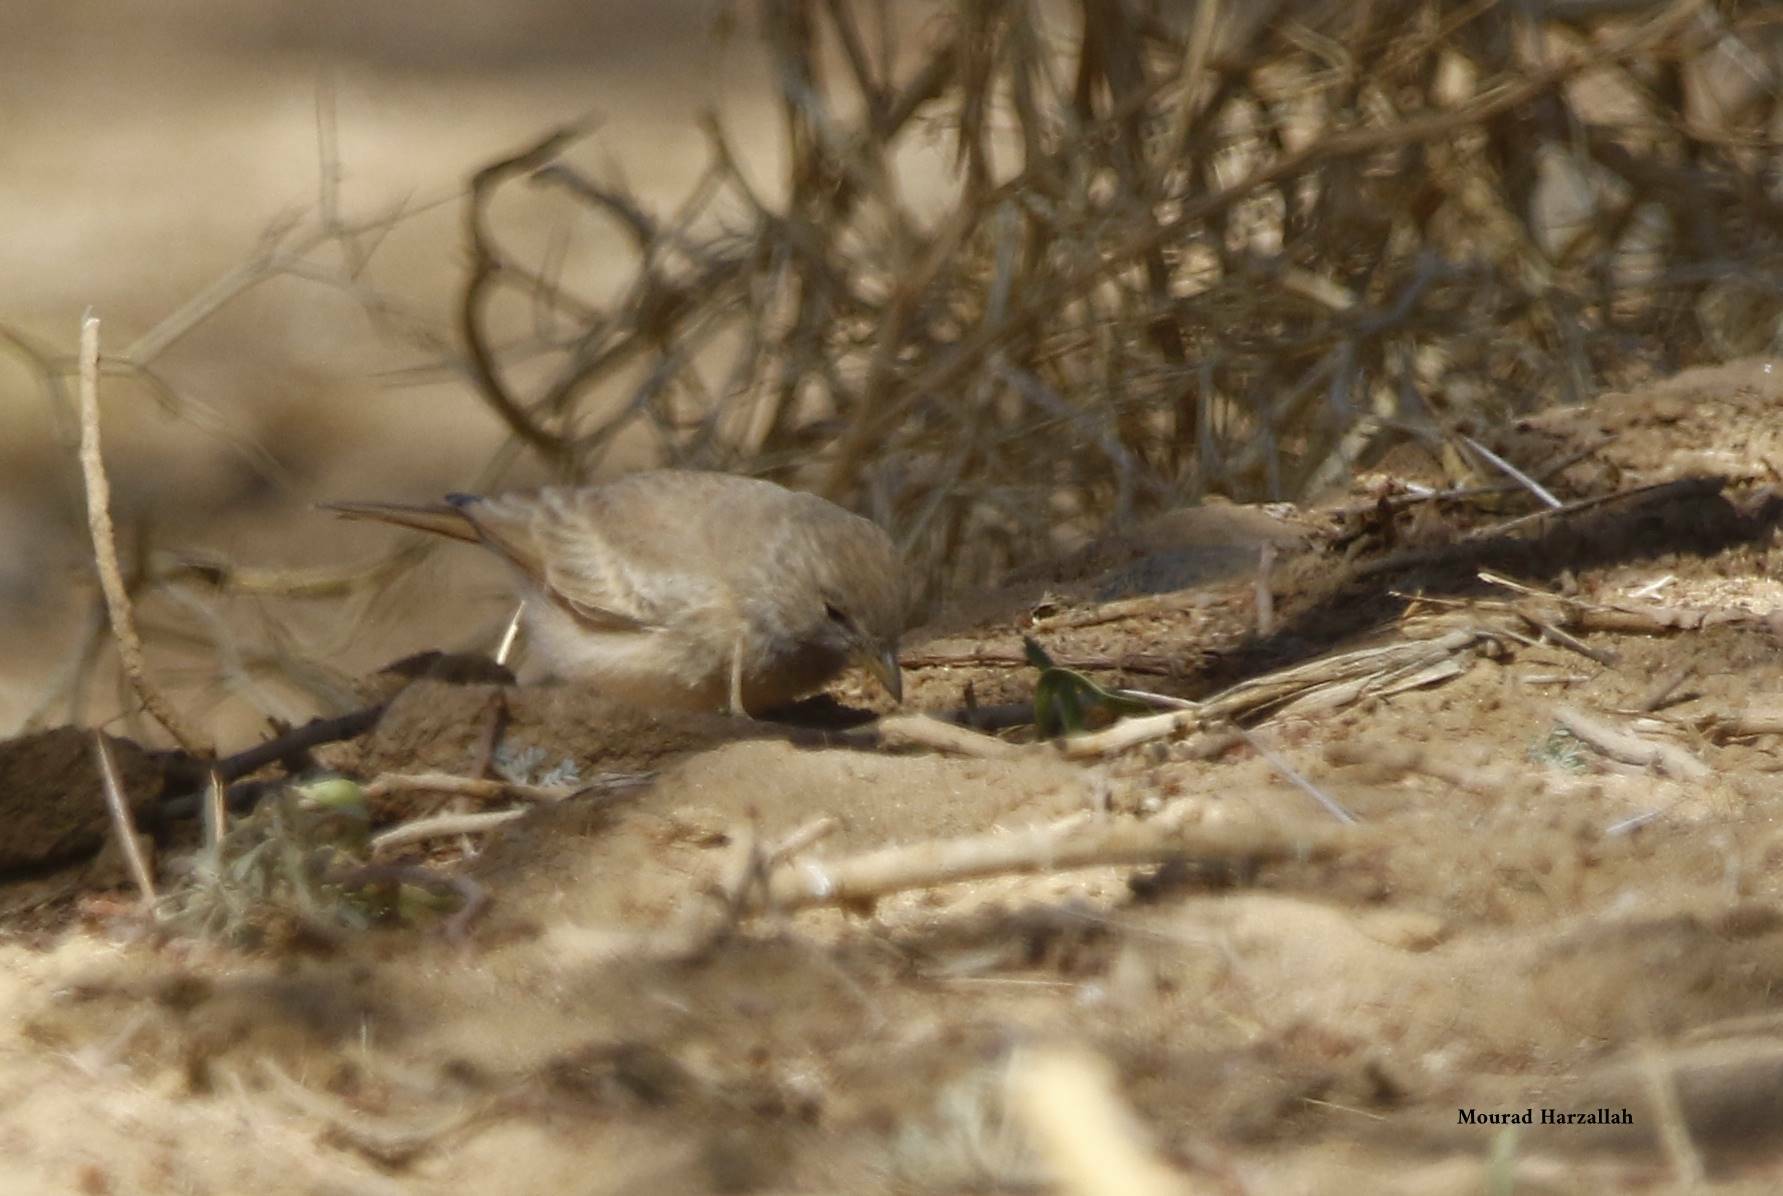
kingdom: Animalia
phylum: Chordata
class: Aves
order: Passeriformes
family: Alaudidae
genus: Ammomanes
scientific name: Ammomanes deserti
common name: Desert lark
